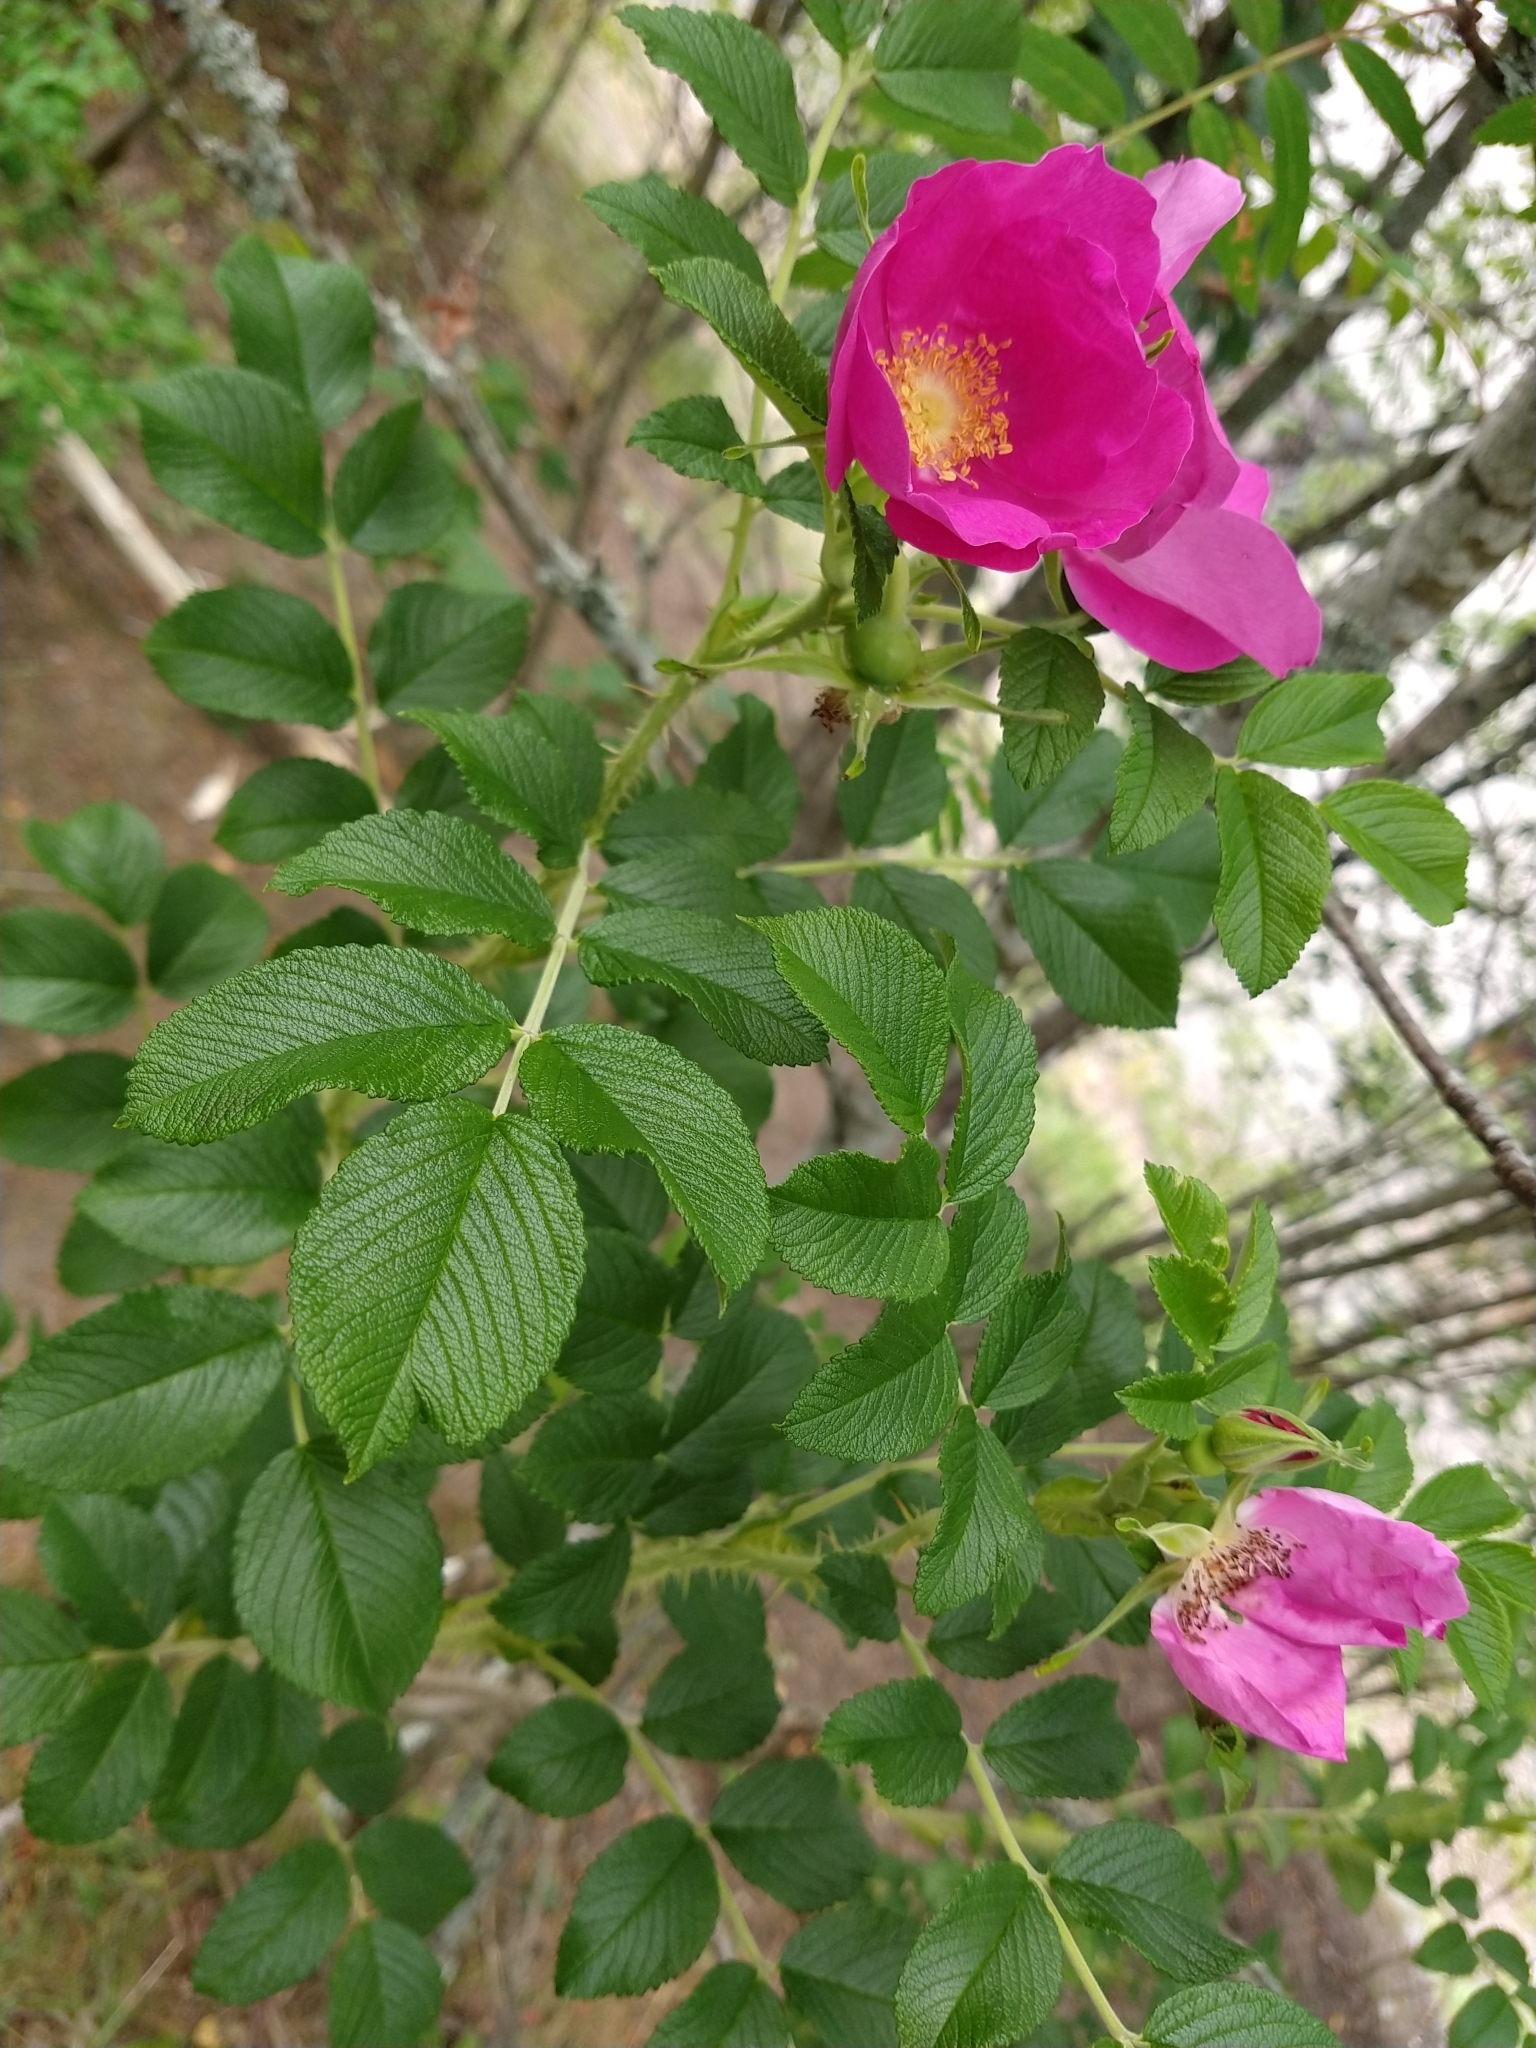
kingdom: Plantae
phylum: Tracheophyta
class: Magnoliopsida
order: Rosales
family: Rosaceae
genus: Rosa
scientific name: Rosa rugosa
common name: Japanese rose
